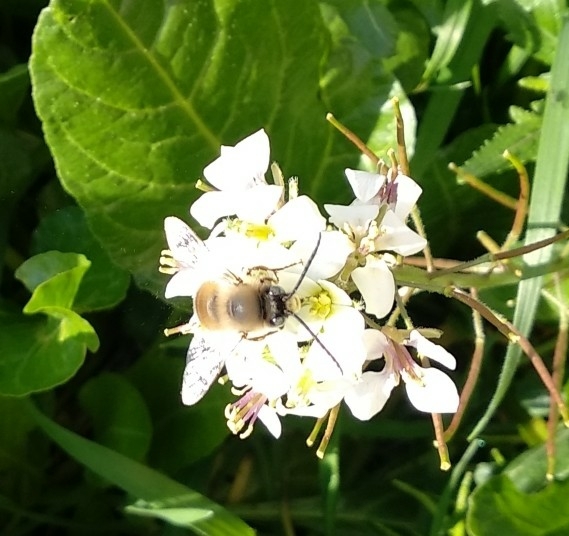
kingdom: Animalia
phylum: Arthropoda
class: Insecta
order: Hymenoptera
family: Apidae
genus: Eucera
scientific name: Eucera nigrilabris
